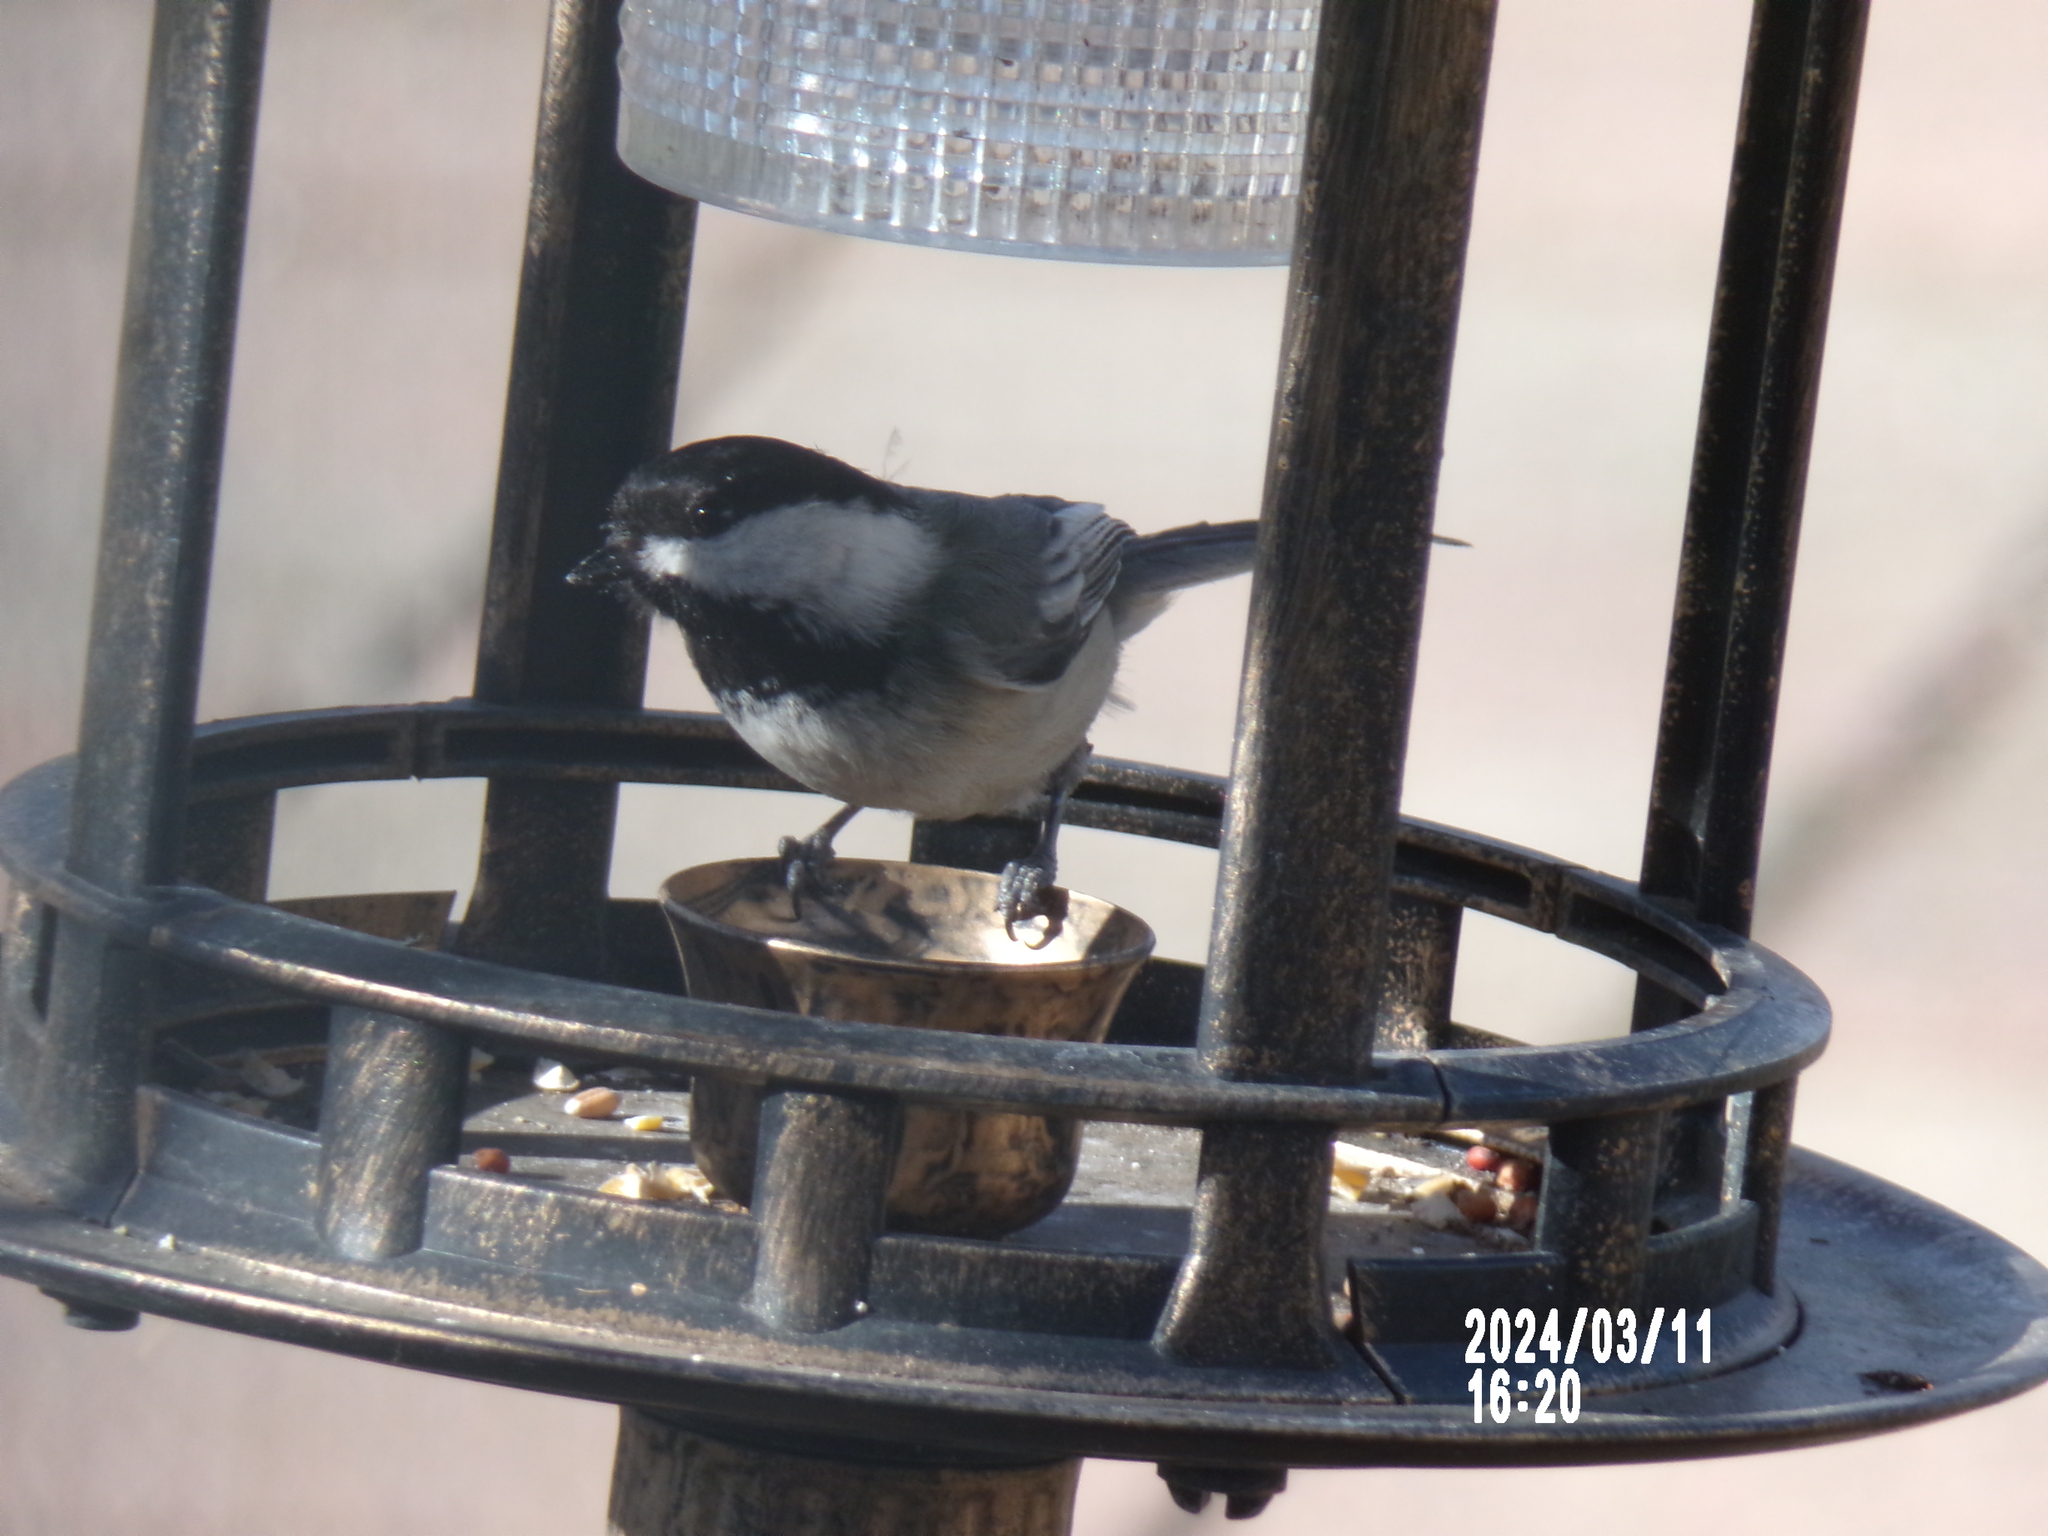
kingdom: Animalia
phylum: Chordata
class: Aves
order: Passeriformes
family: Paridae
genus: Poecile
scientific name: Poecile atricapillus
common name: Black-capped chickadee
